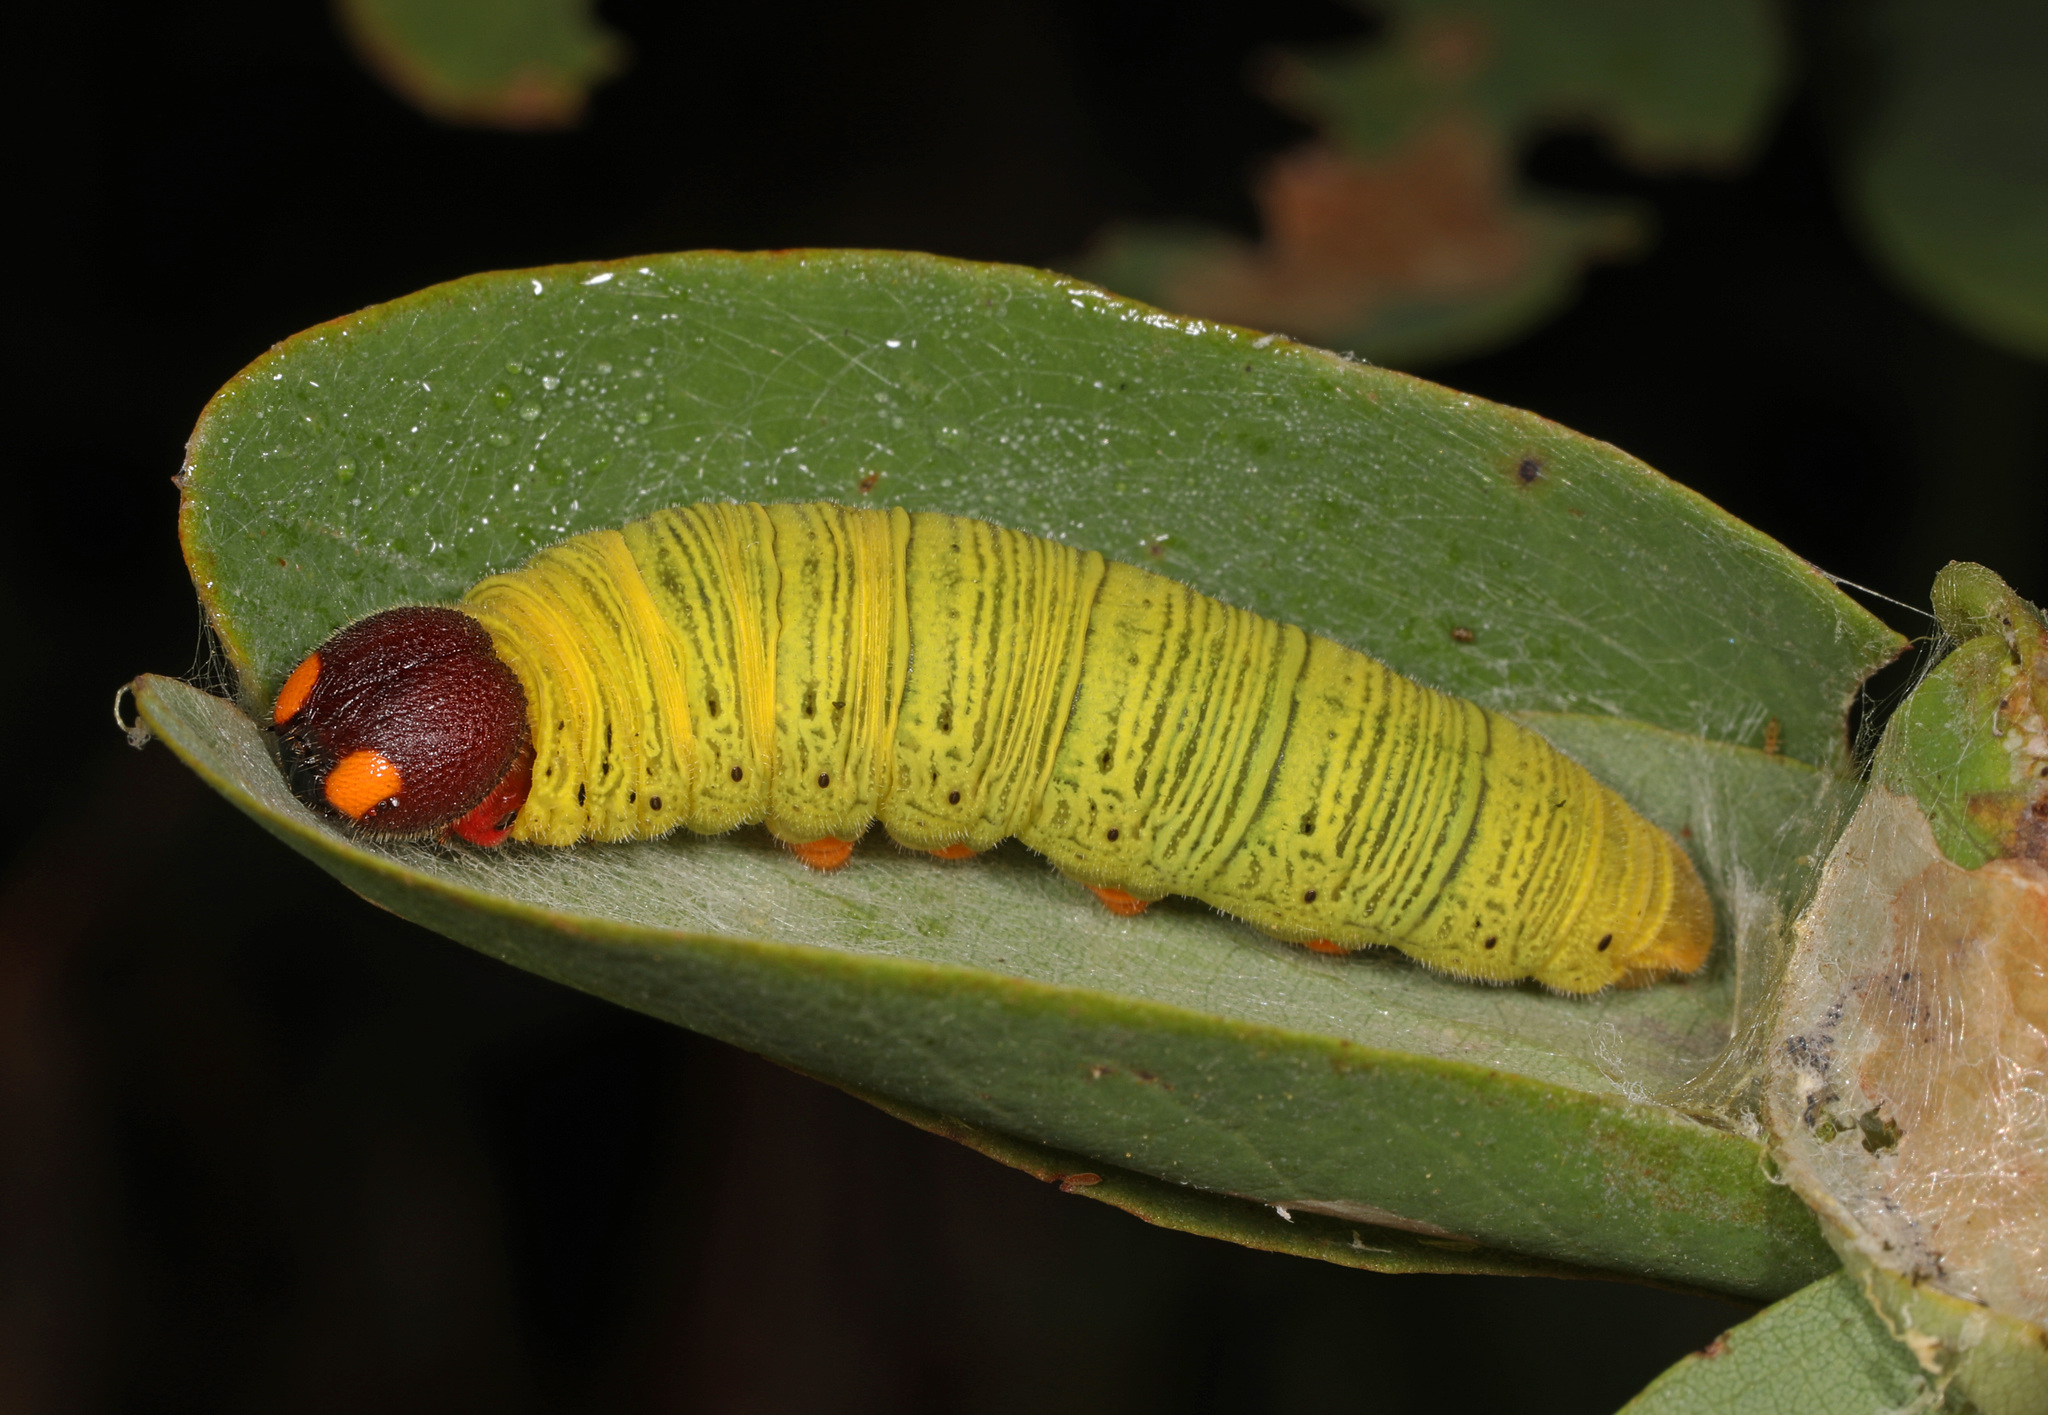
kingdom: Animalia
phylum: Arthropoda
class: Insecta
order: Lepidoptera
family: Hesperiidae
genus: Epargyreus
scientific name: Epargyreus clarus
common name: Silver-spotted skipper
